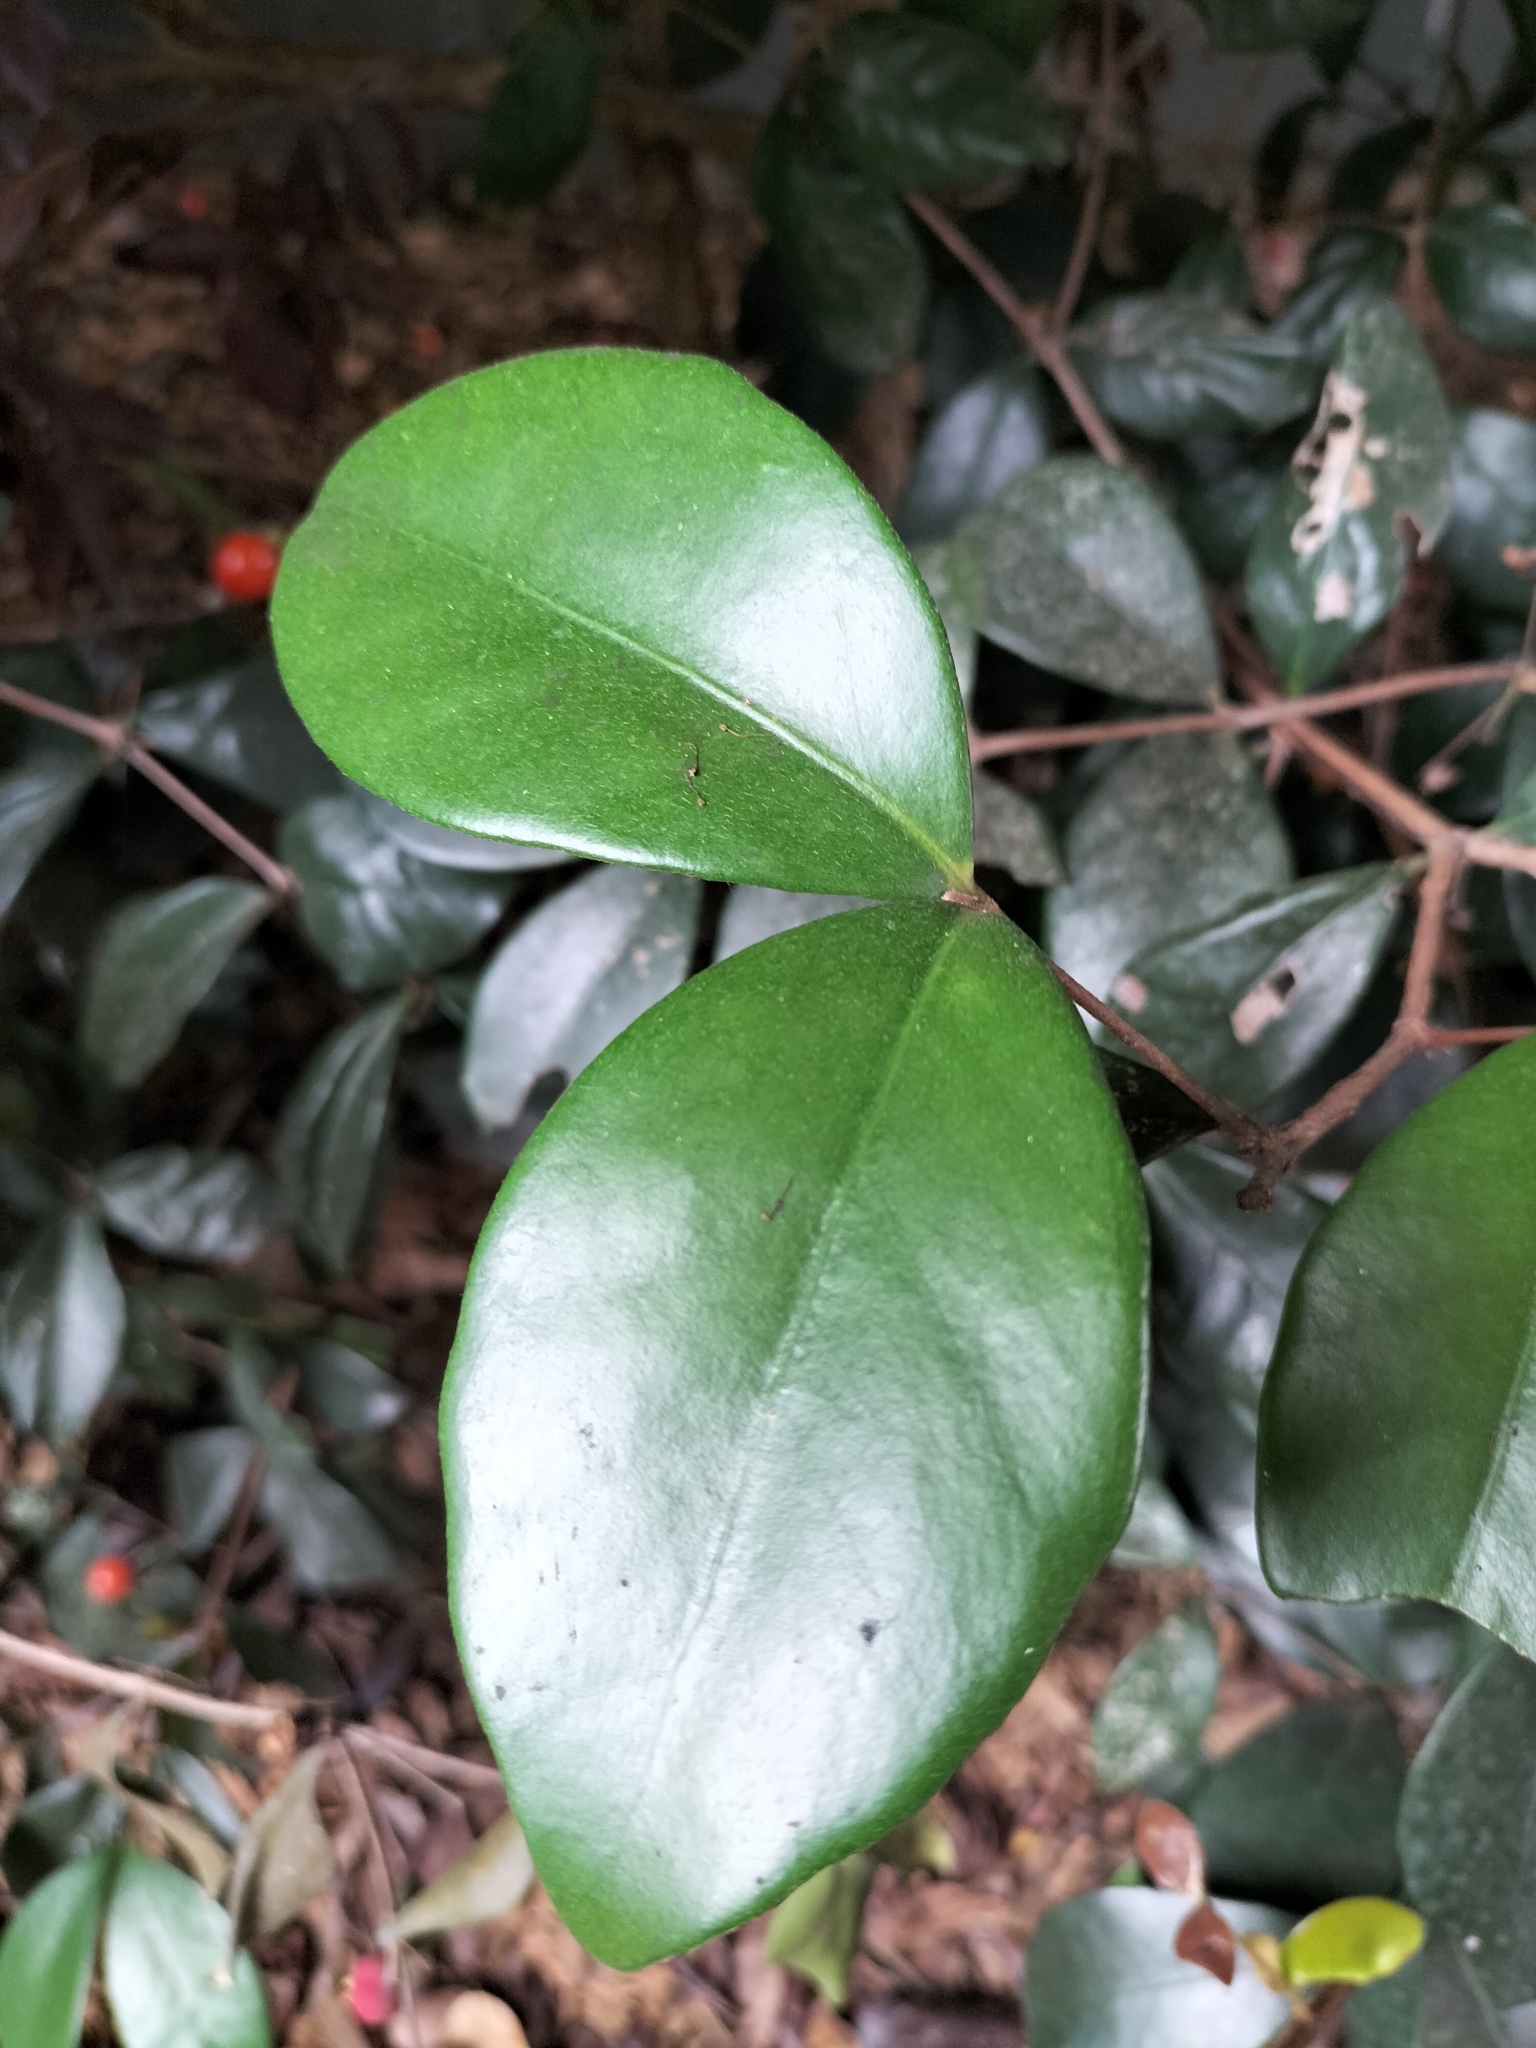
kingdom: Plantae
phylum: Tracheophyta
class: Magnoliopsida
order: Myrtales
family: Myrtaceae
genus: Eugenia
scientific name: Eugenia reinwardtiana
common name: Cedar bay-cherry
